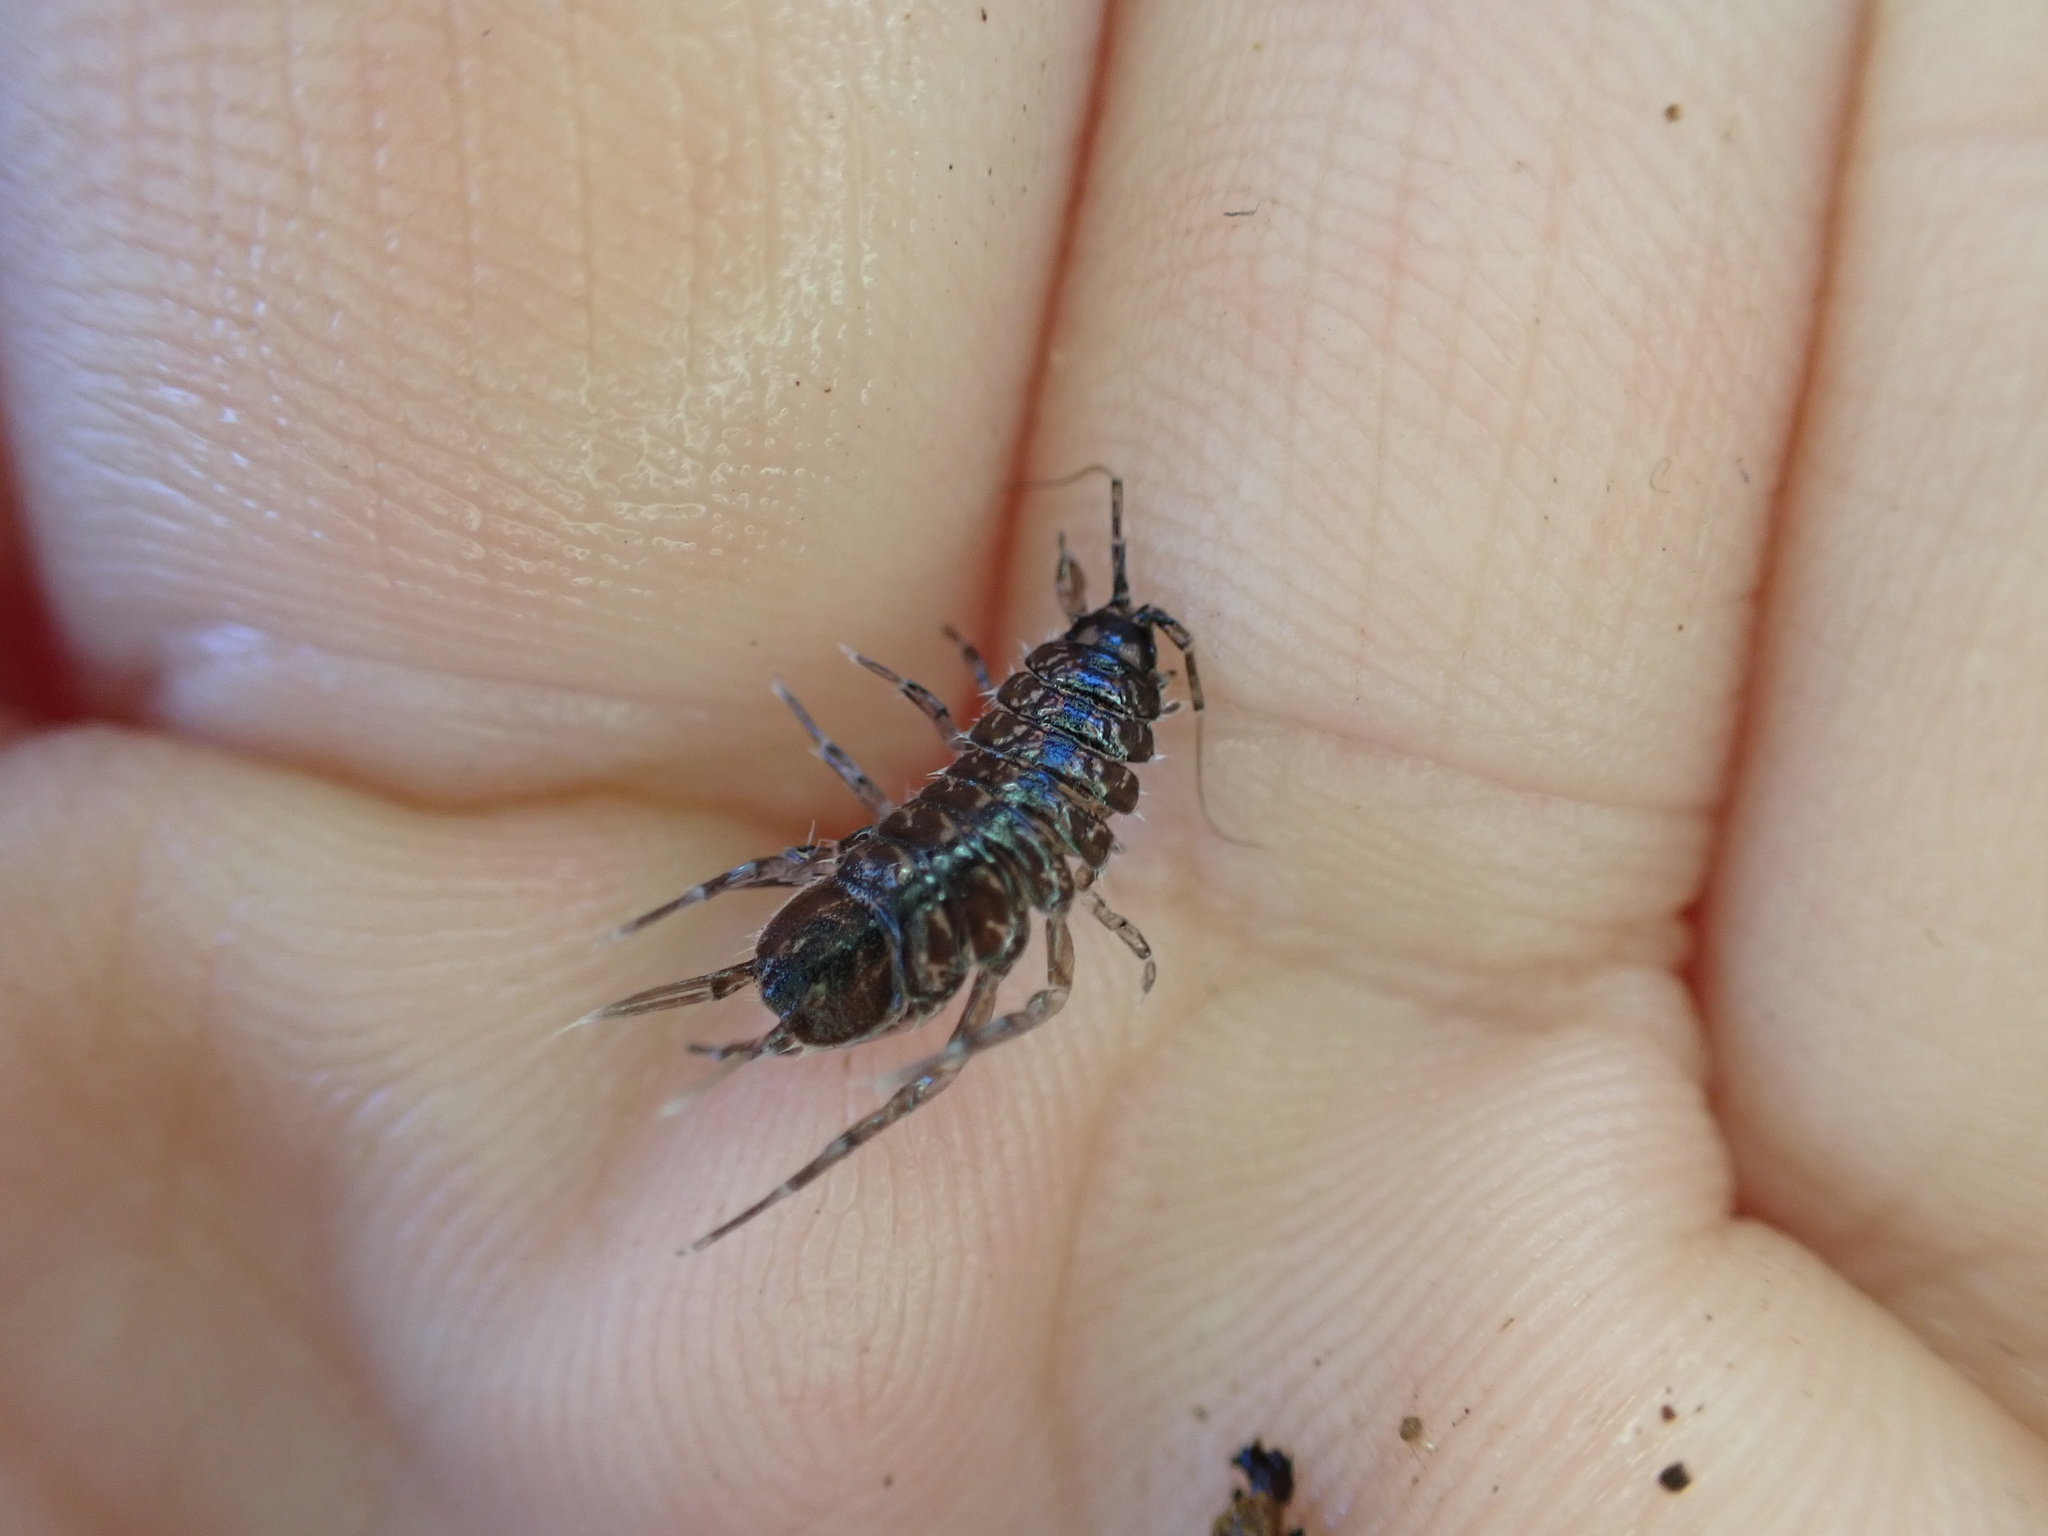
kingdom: Animalia
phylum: Arthropoda
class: Malacostraca
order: Isopoda
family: Asellidae
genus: Asellus
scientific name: Asellus aquaticus
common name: Water hog lice/slaters
